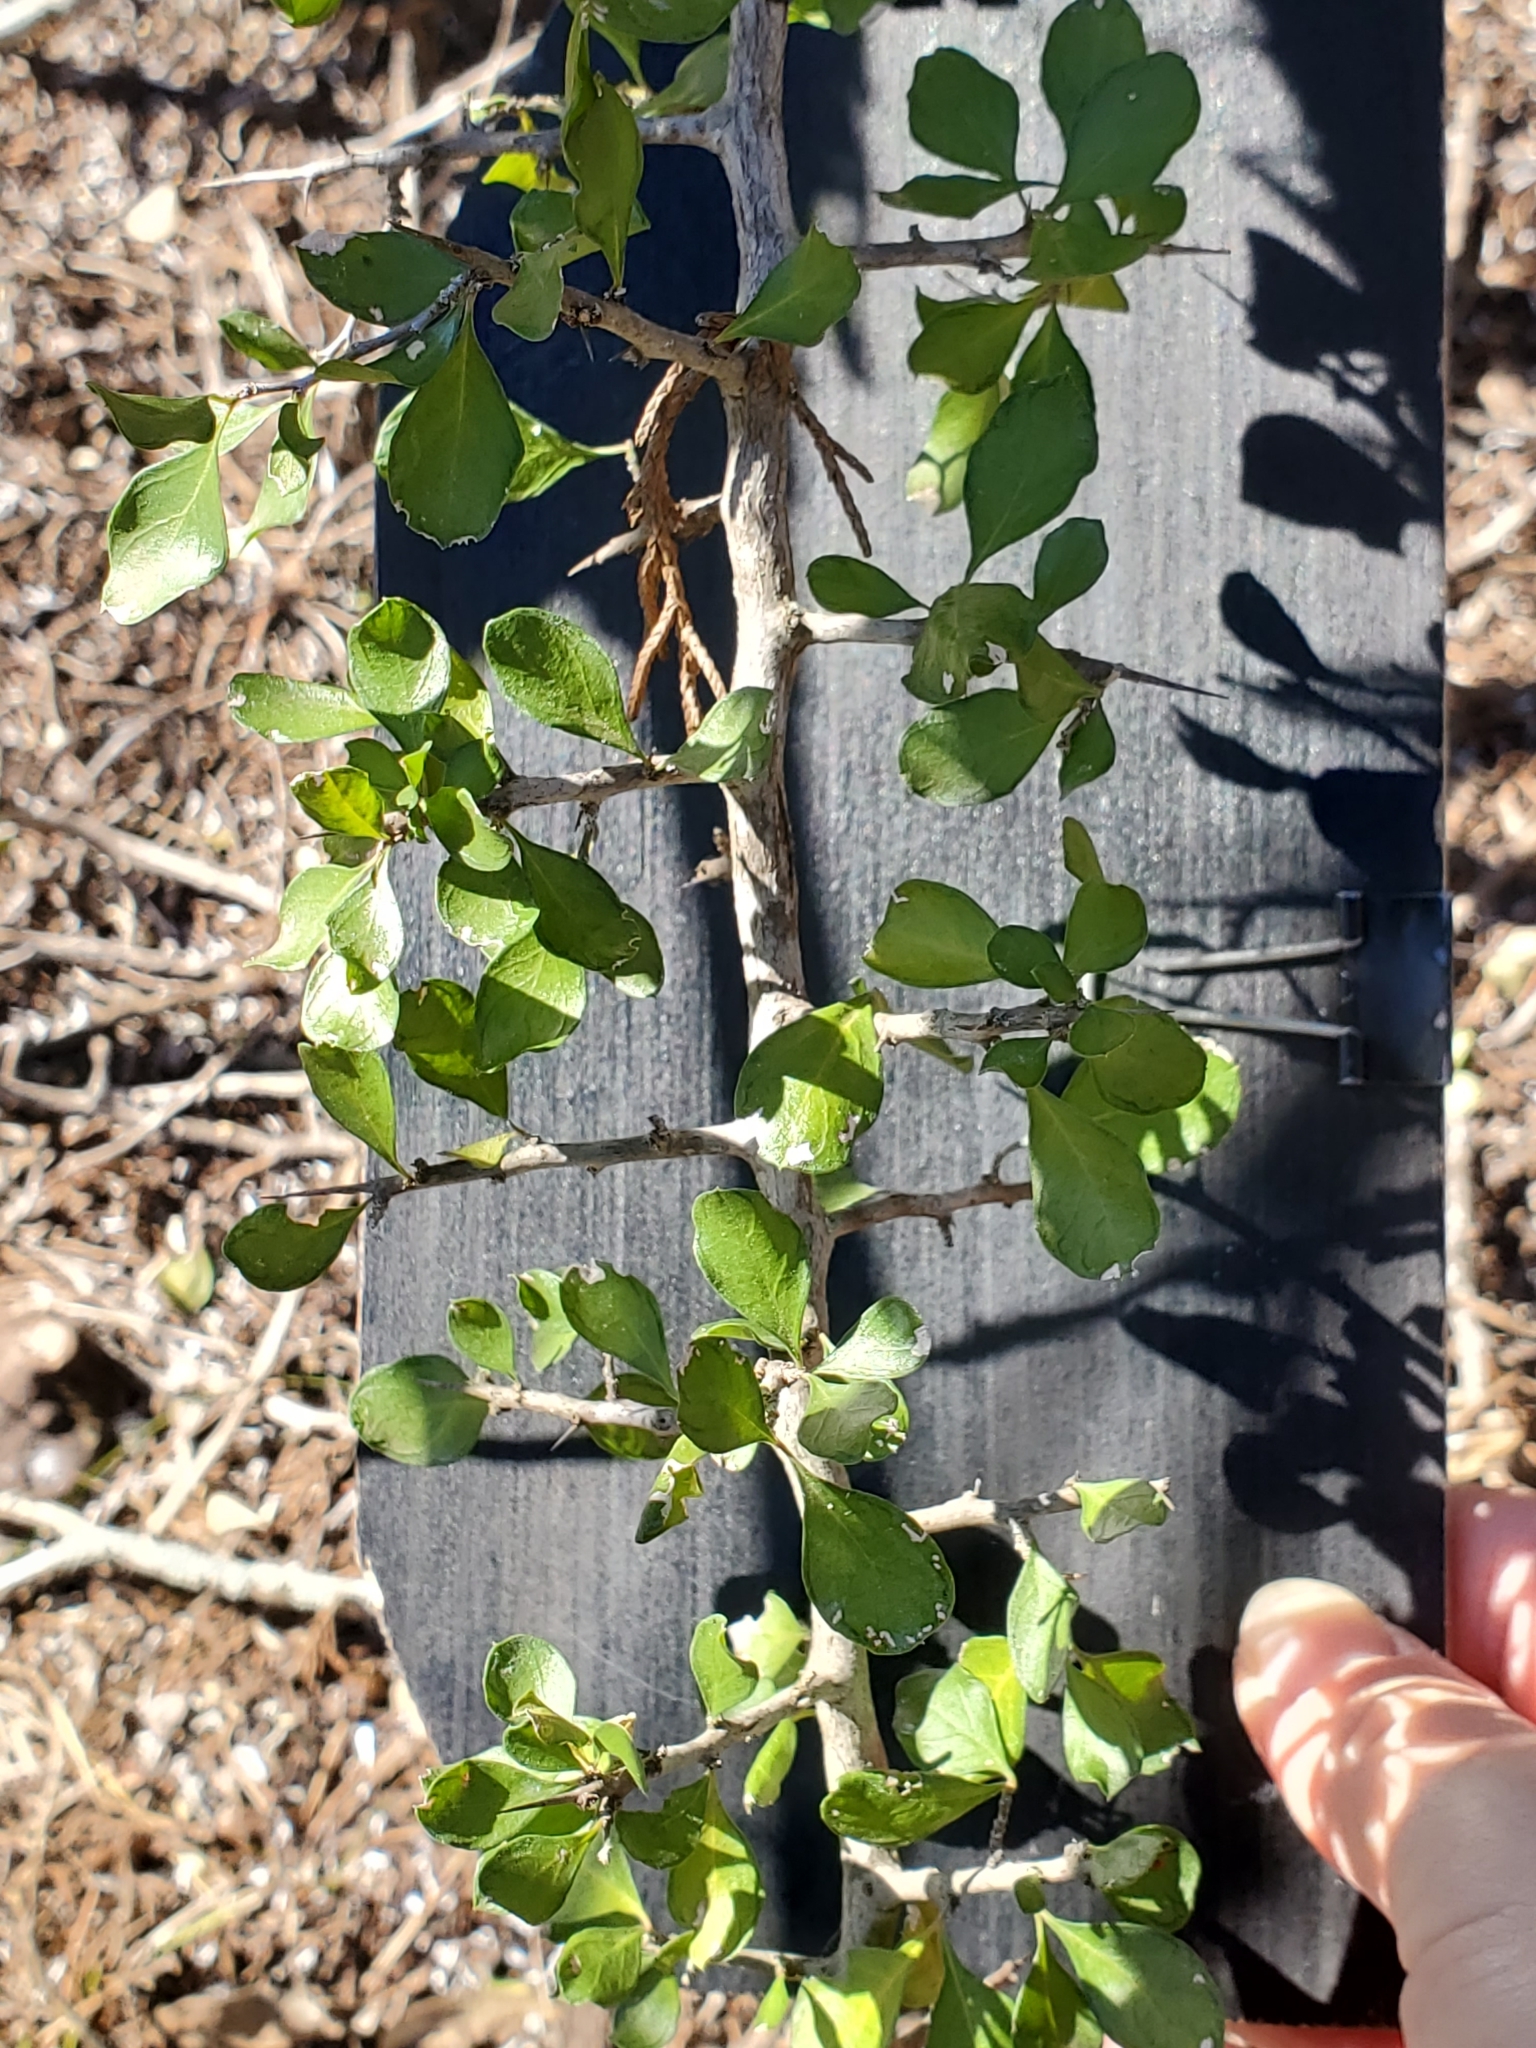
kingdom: Plantae
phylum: Tracheophyta
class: Magnoliopsida
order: Rosales
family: Rhamnaceae
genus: Condalia
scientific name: Condalia viridis
